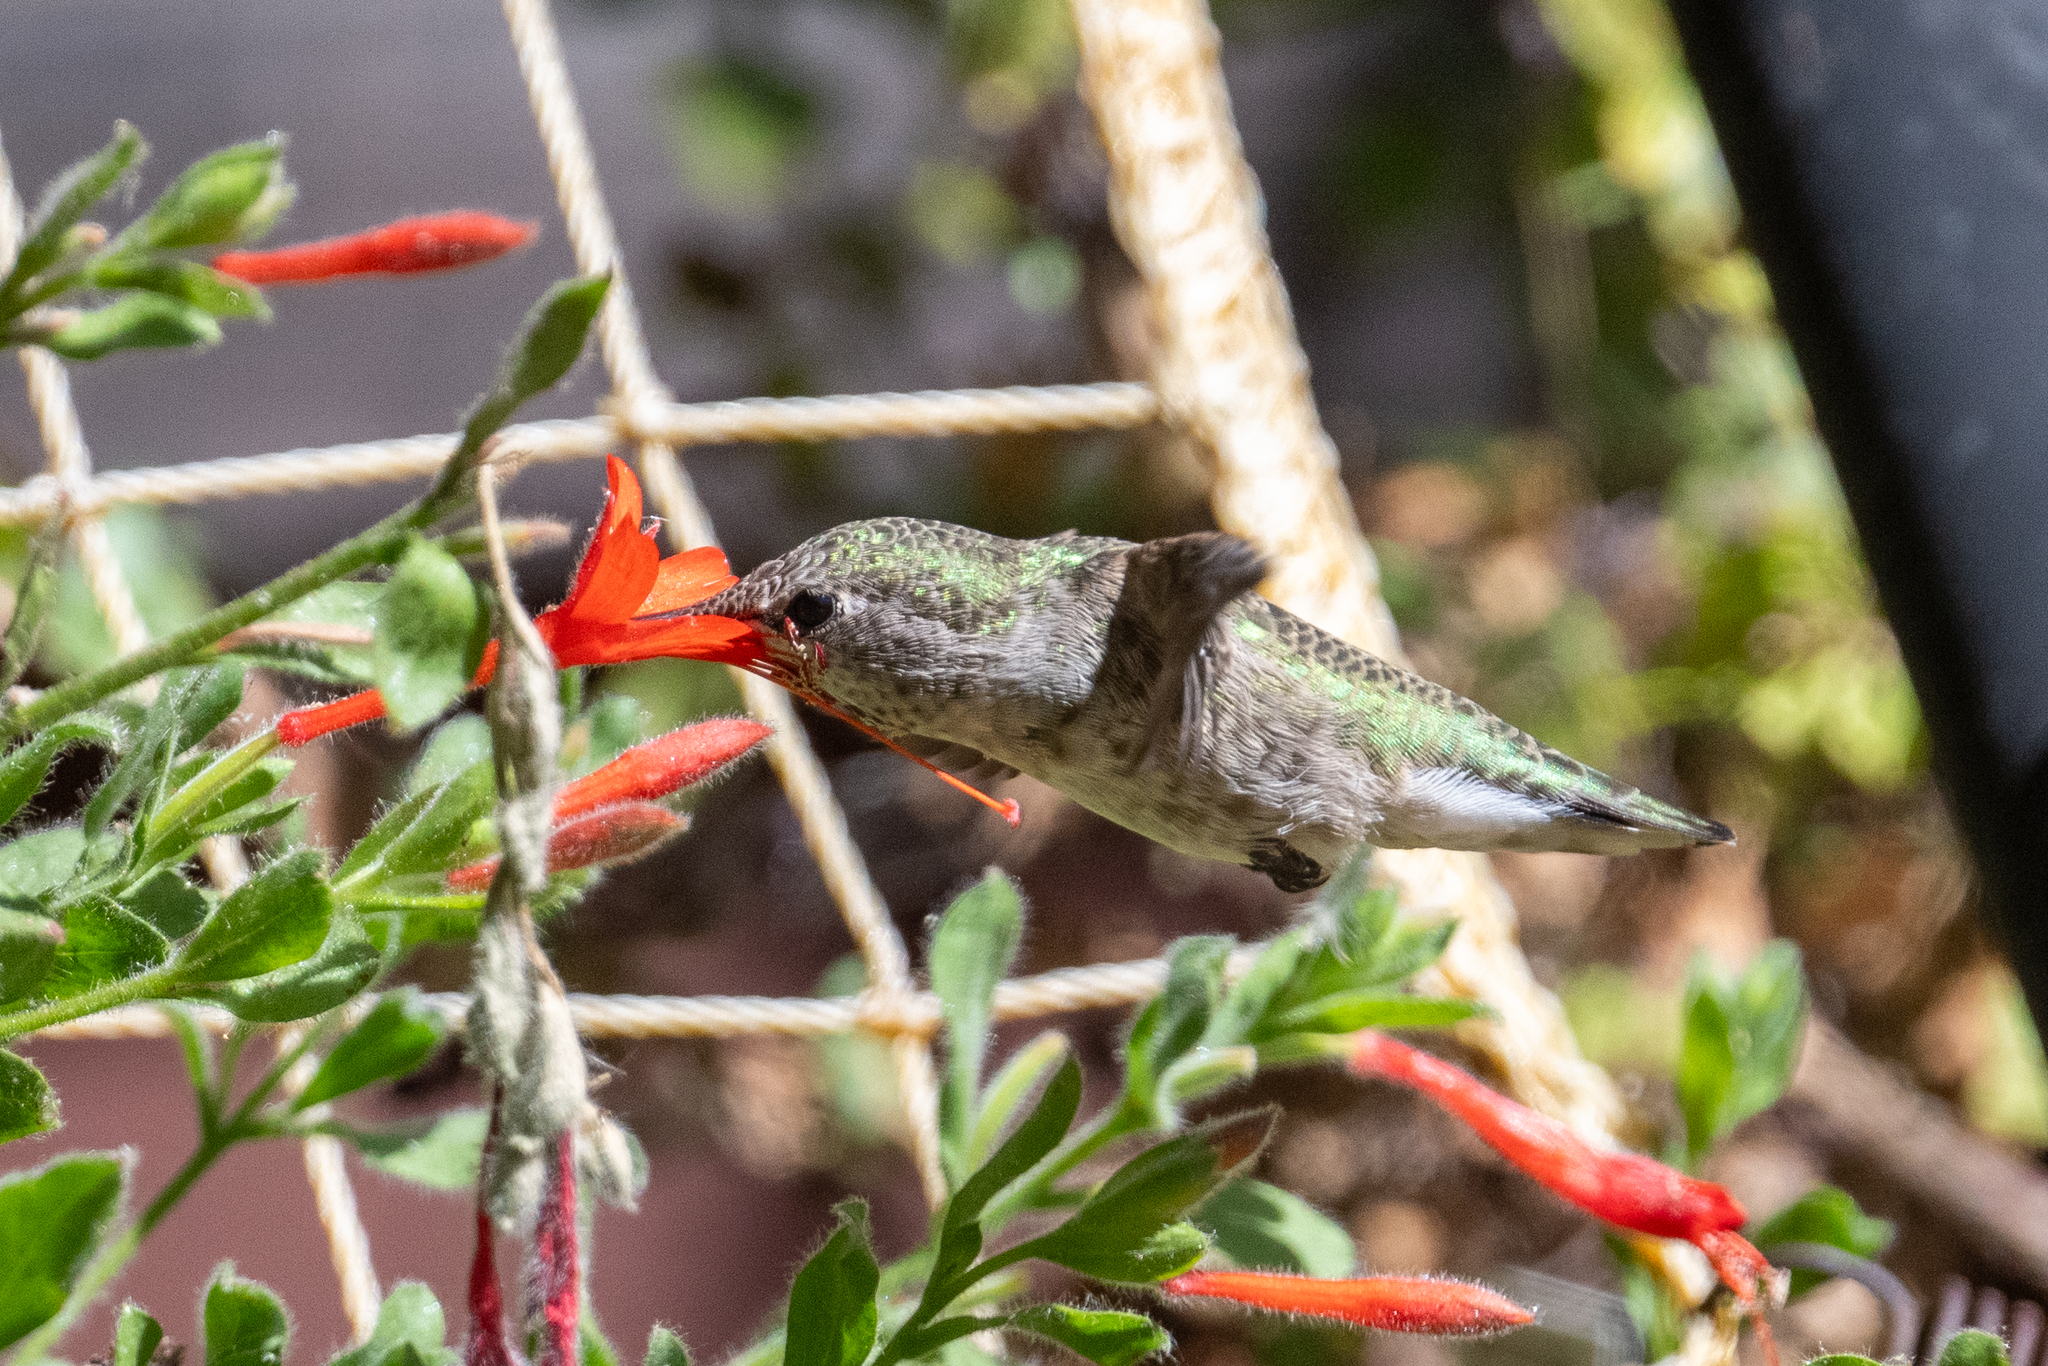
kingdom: Animalia
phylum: Chordata
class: Aves
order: Apodiformes
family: Trochilidae
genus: Calypte
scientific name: Calypte anna
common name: Anna's hummingbird
